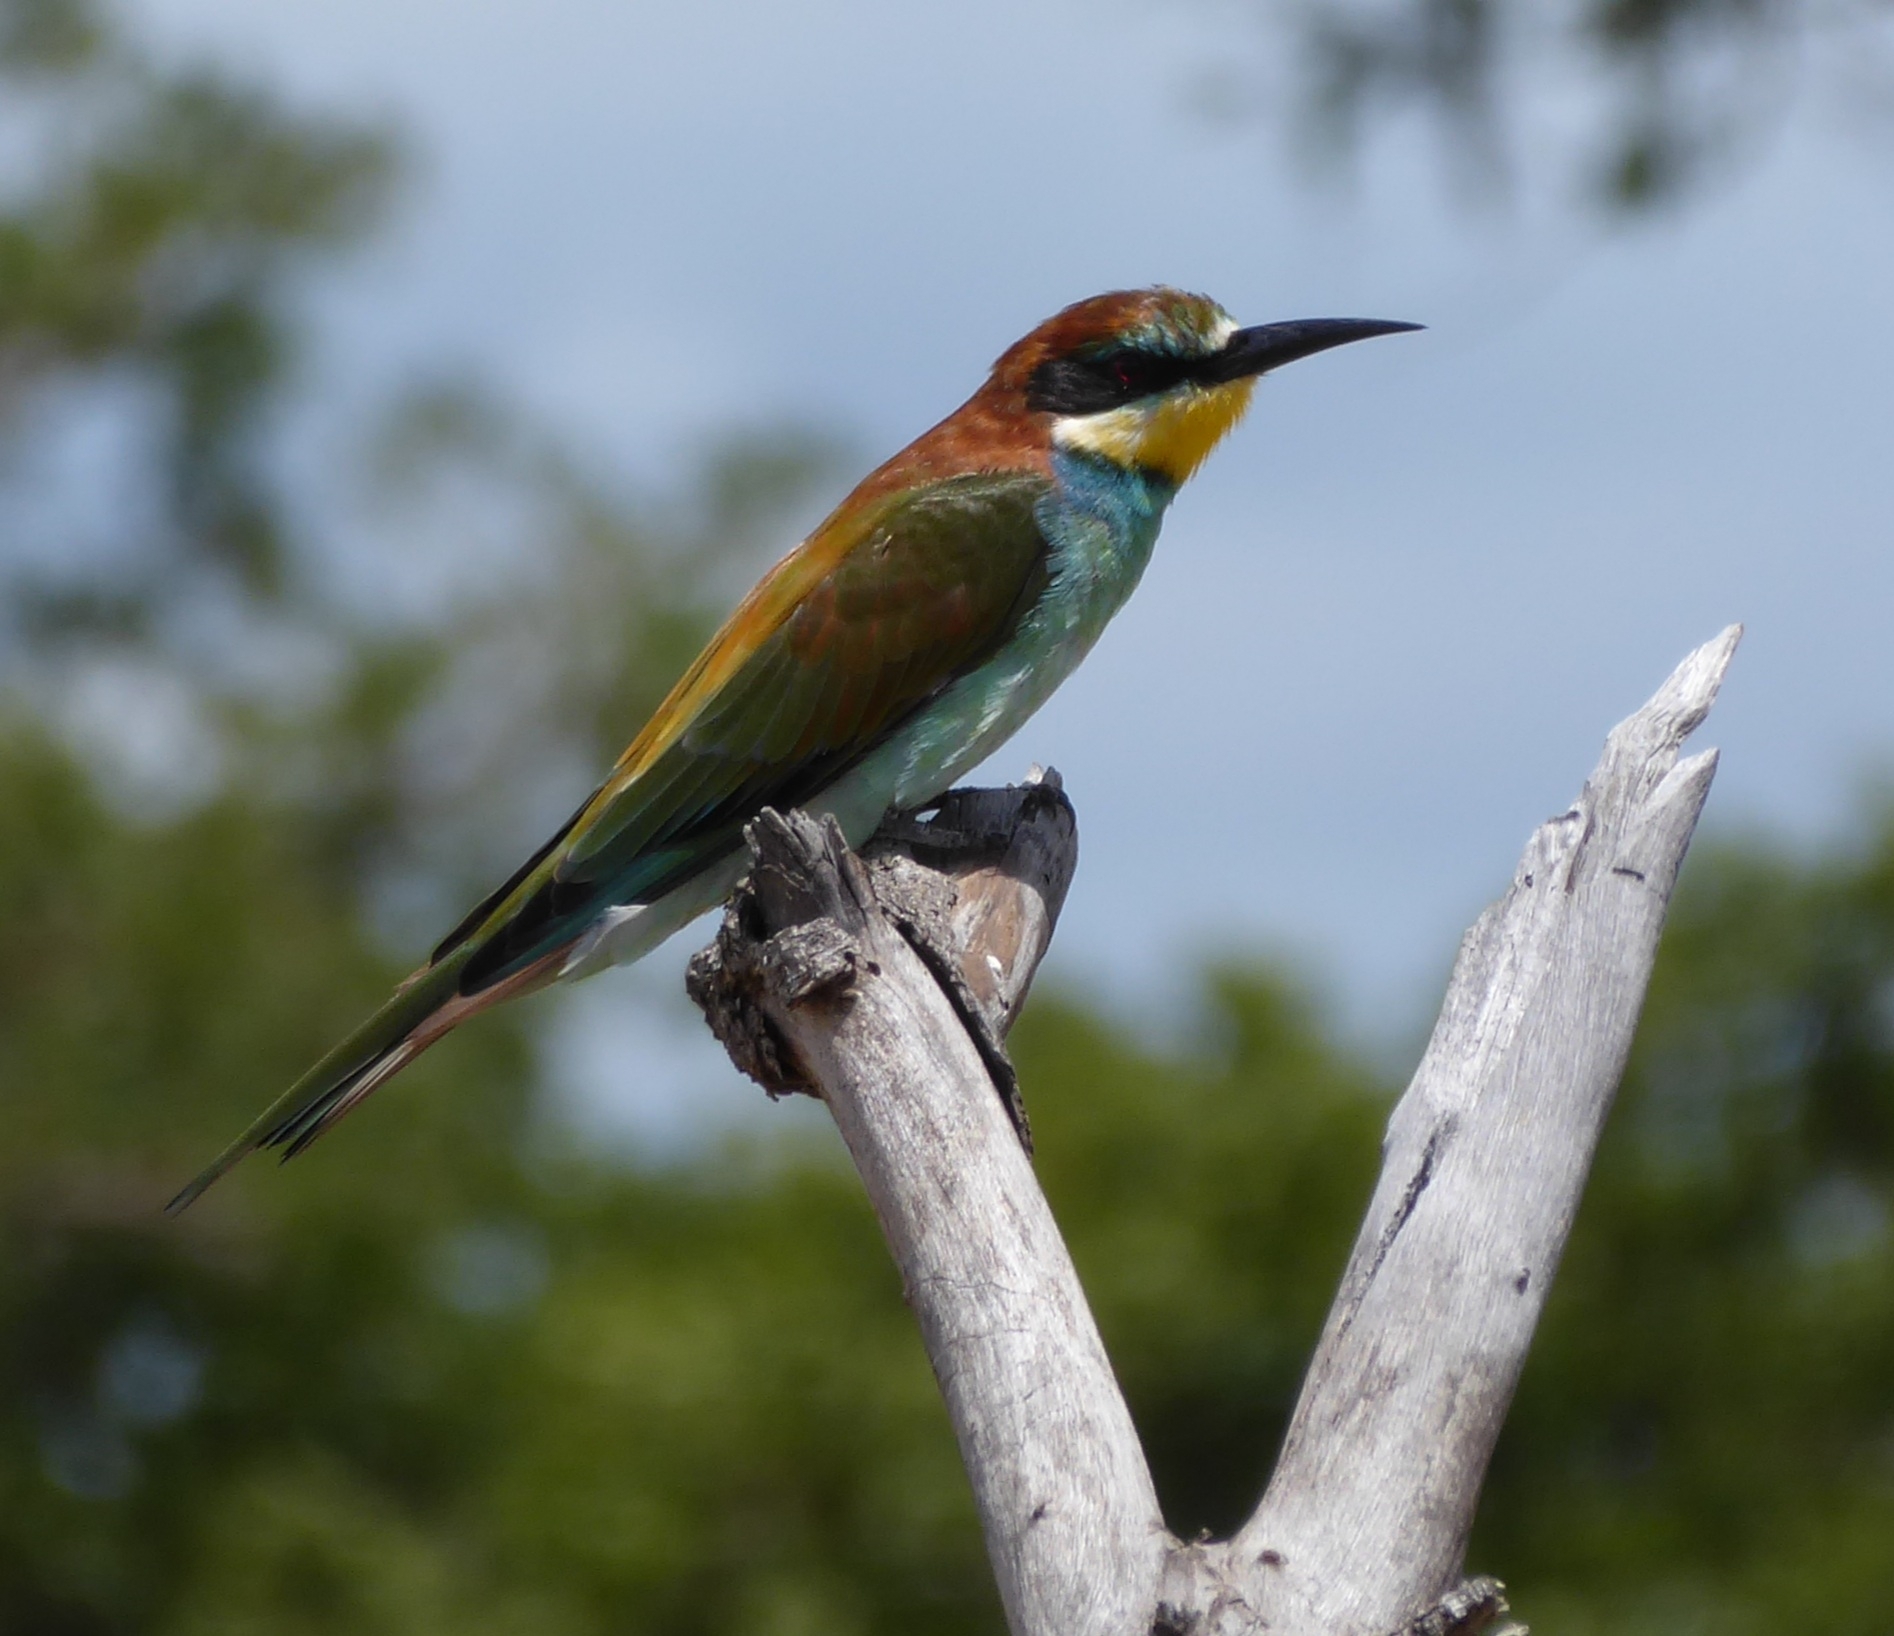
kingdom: Animalia
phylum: Chordata
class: Aves
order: Coraciiformes
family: Meropidae
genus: Merops
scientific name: Merops apiaster
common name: European bee-eater
